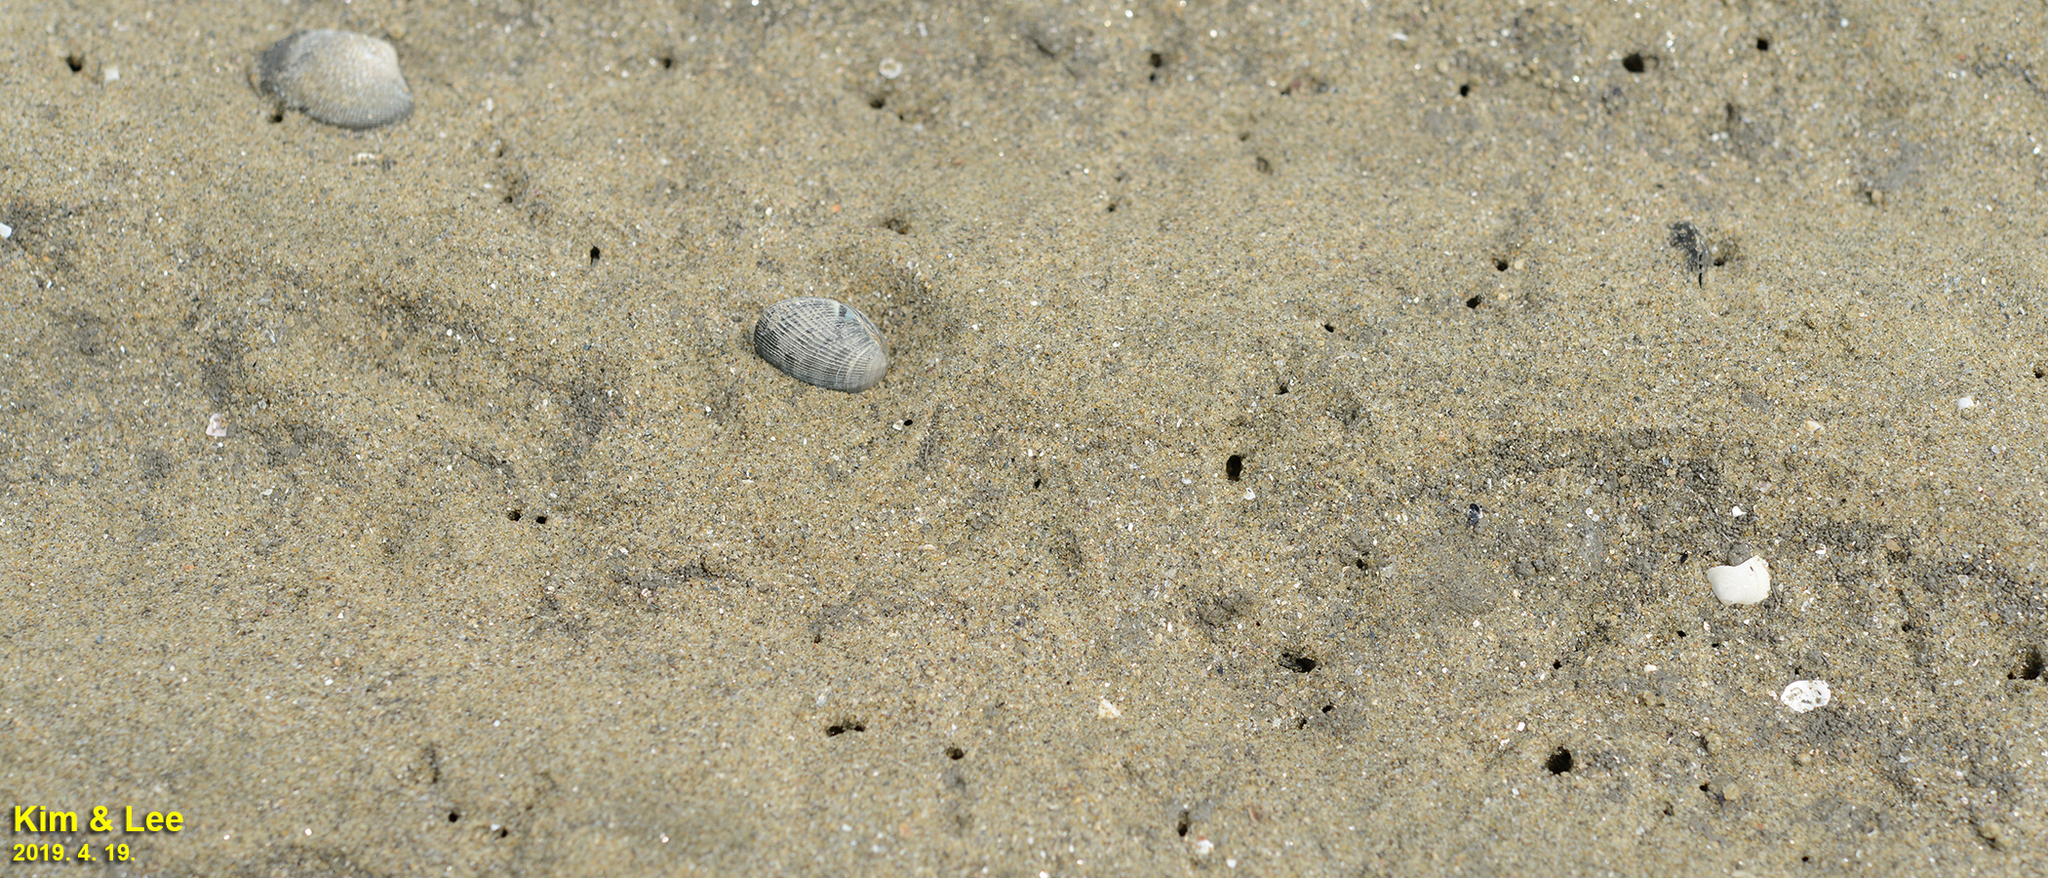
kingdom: Animalia
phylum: Mollusca
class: Bivalvia
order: Venerida
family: Veneridae
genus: Ruditapes
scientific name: Ruditapes philippinarum
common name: Manila clam
